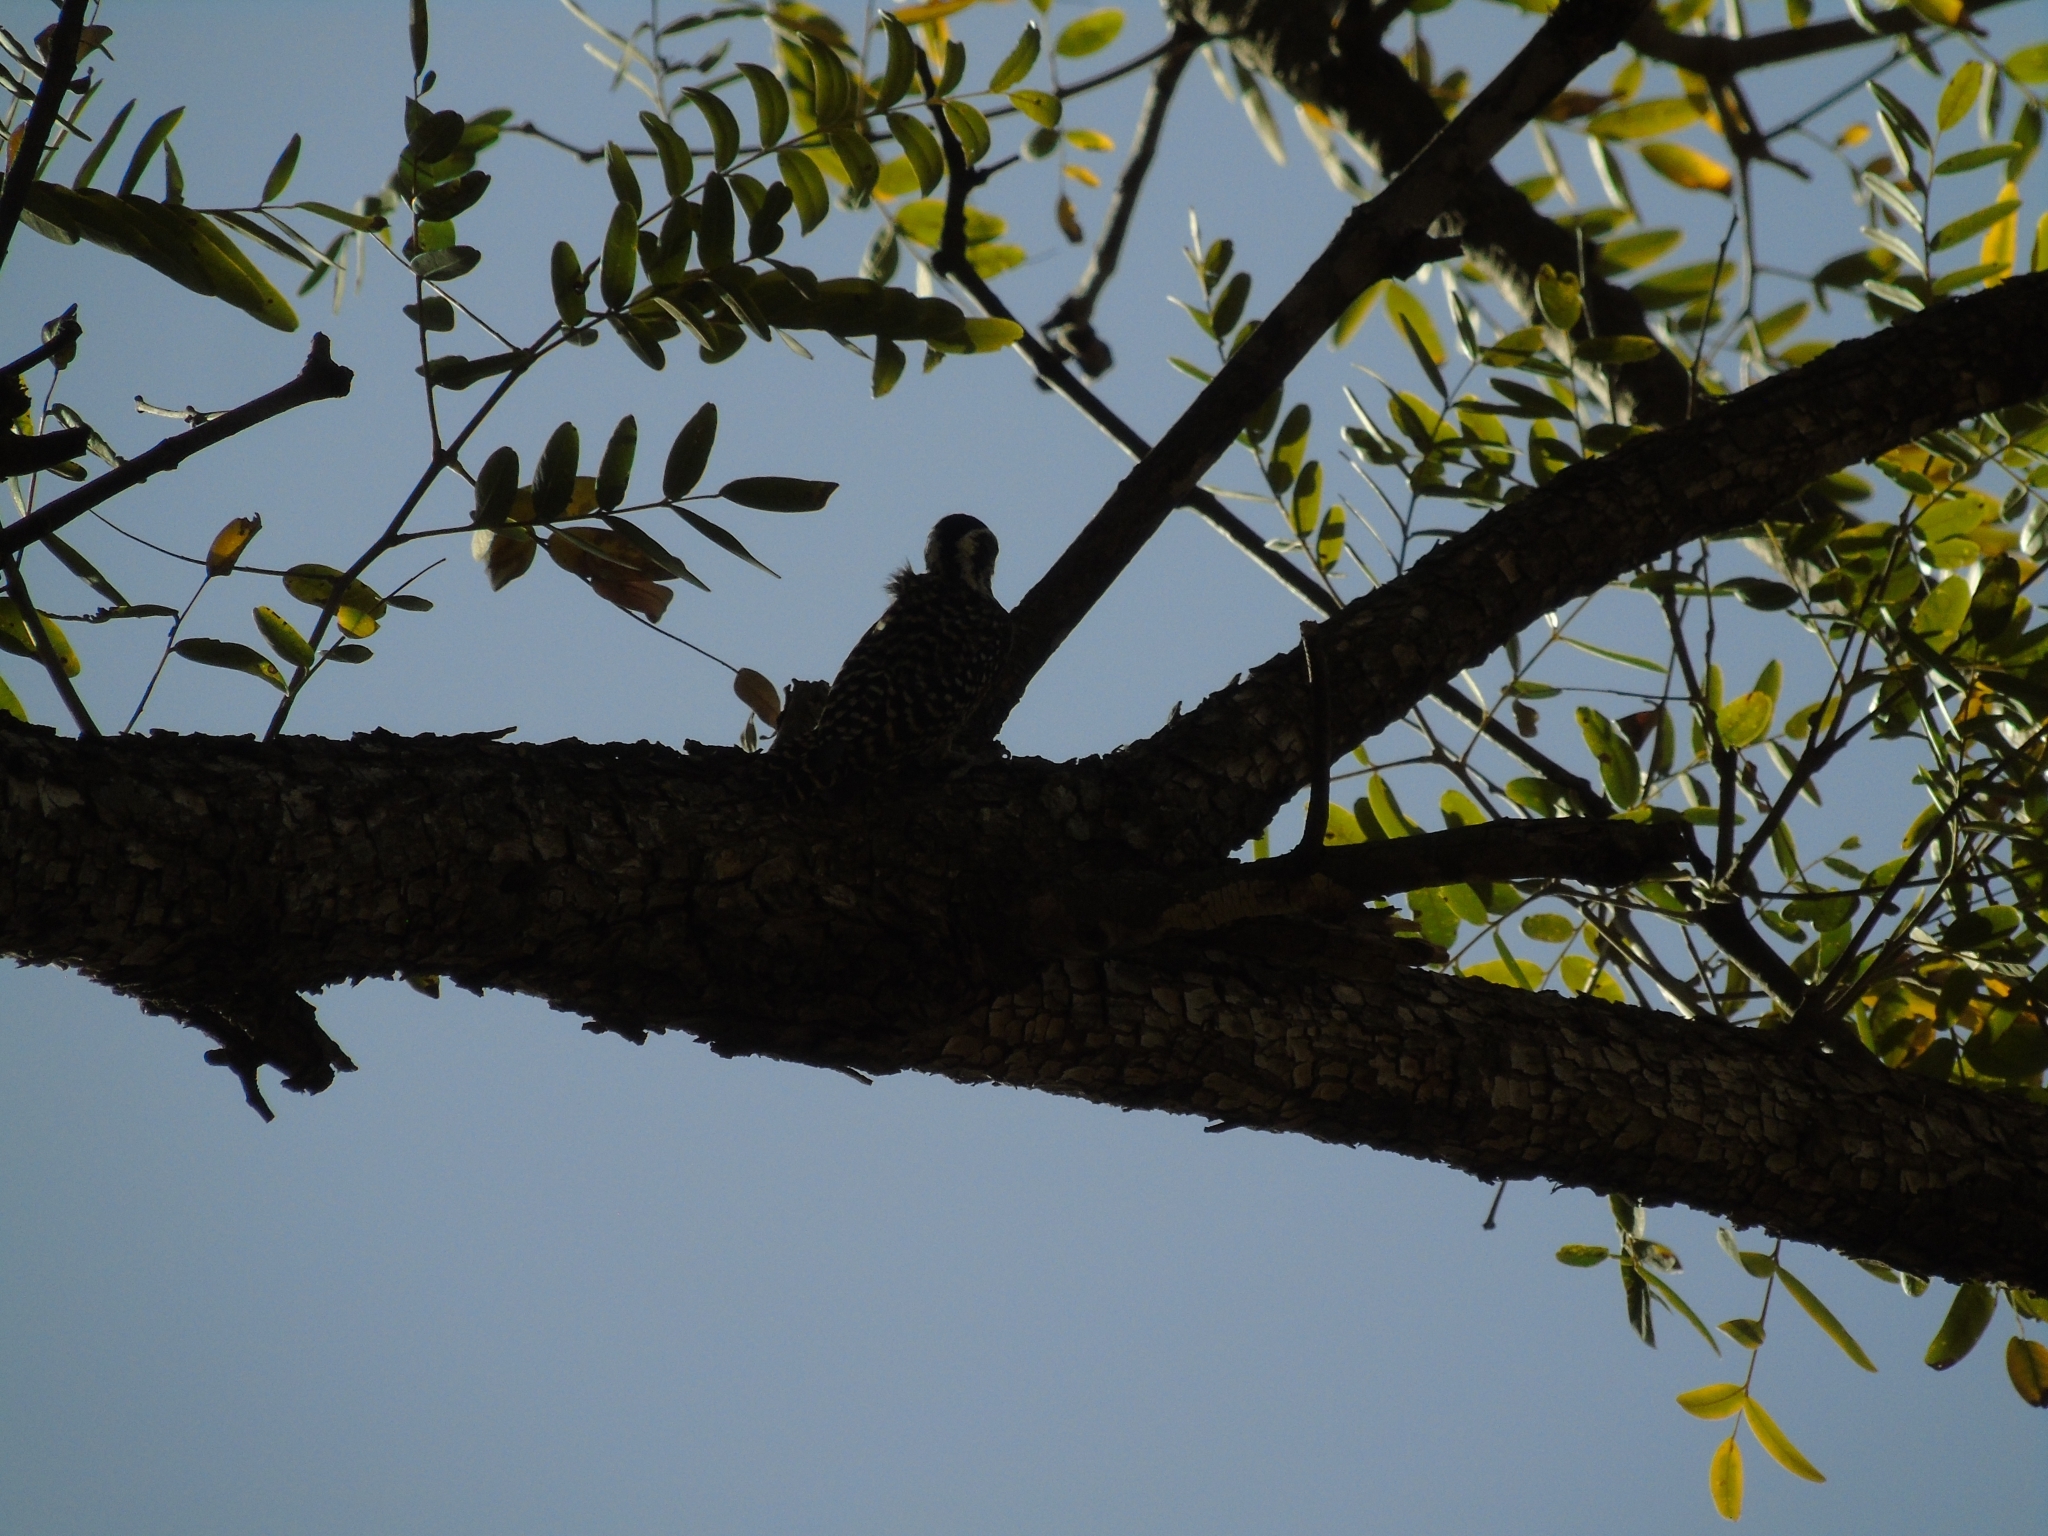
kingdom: Animalia
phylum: Chordata
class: Aves
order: Piciformes
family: Picidae
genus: Veniliornis
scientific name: Veniliornis mixtus
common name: Checkered woodpecker
